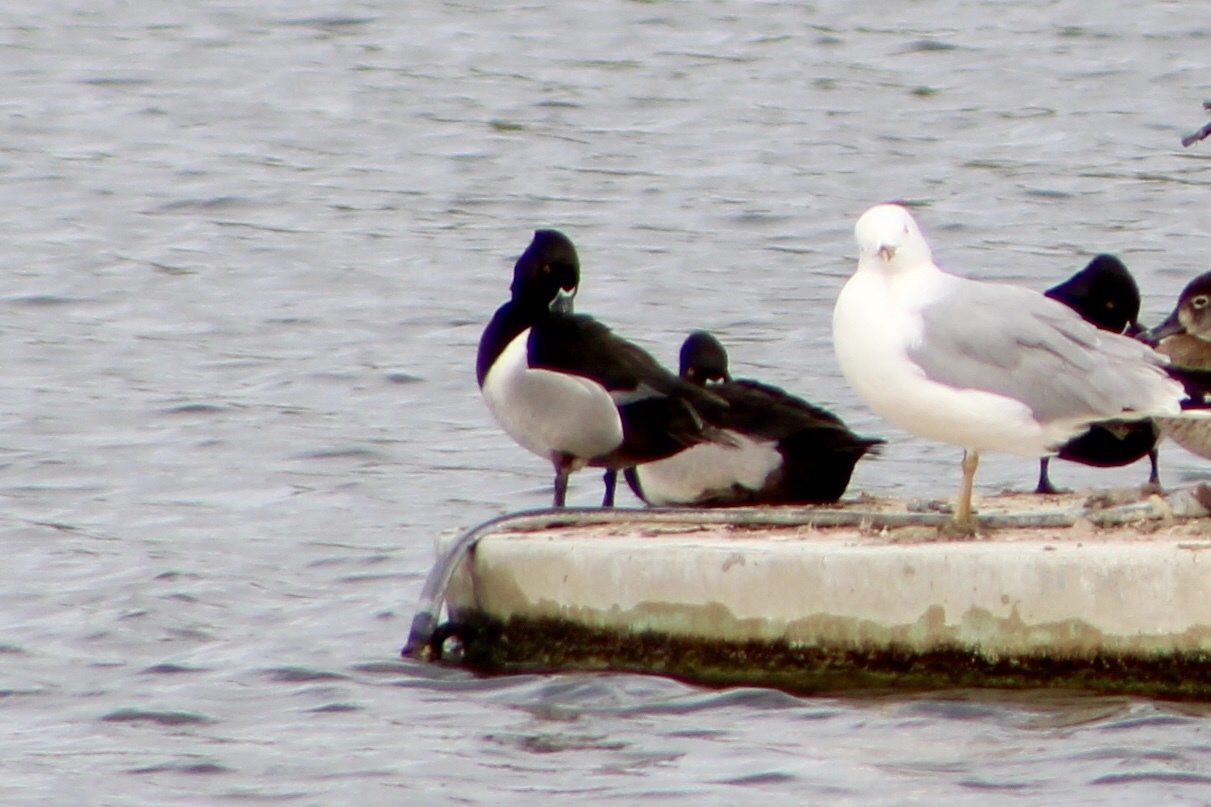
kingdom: Animalia
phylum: Chordata
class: Aves
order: Anseriformes
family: Anatidae
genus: Aythya
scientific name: Aythya collaris
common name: Ring-necked duck
